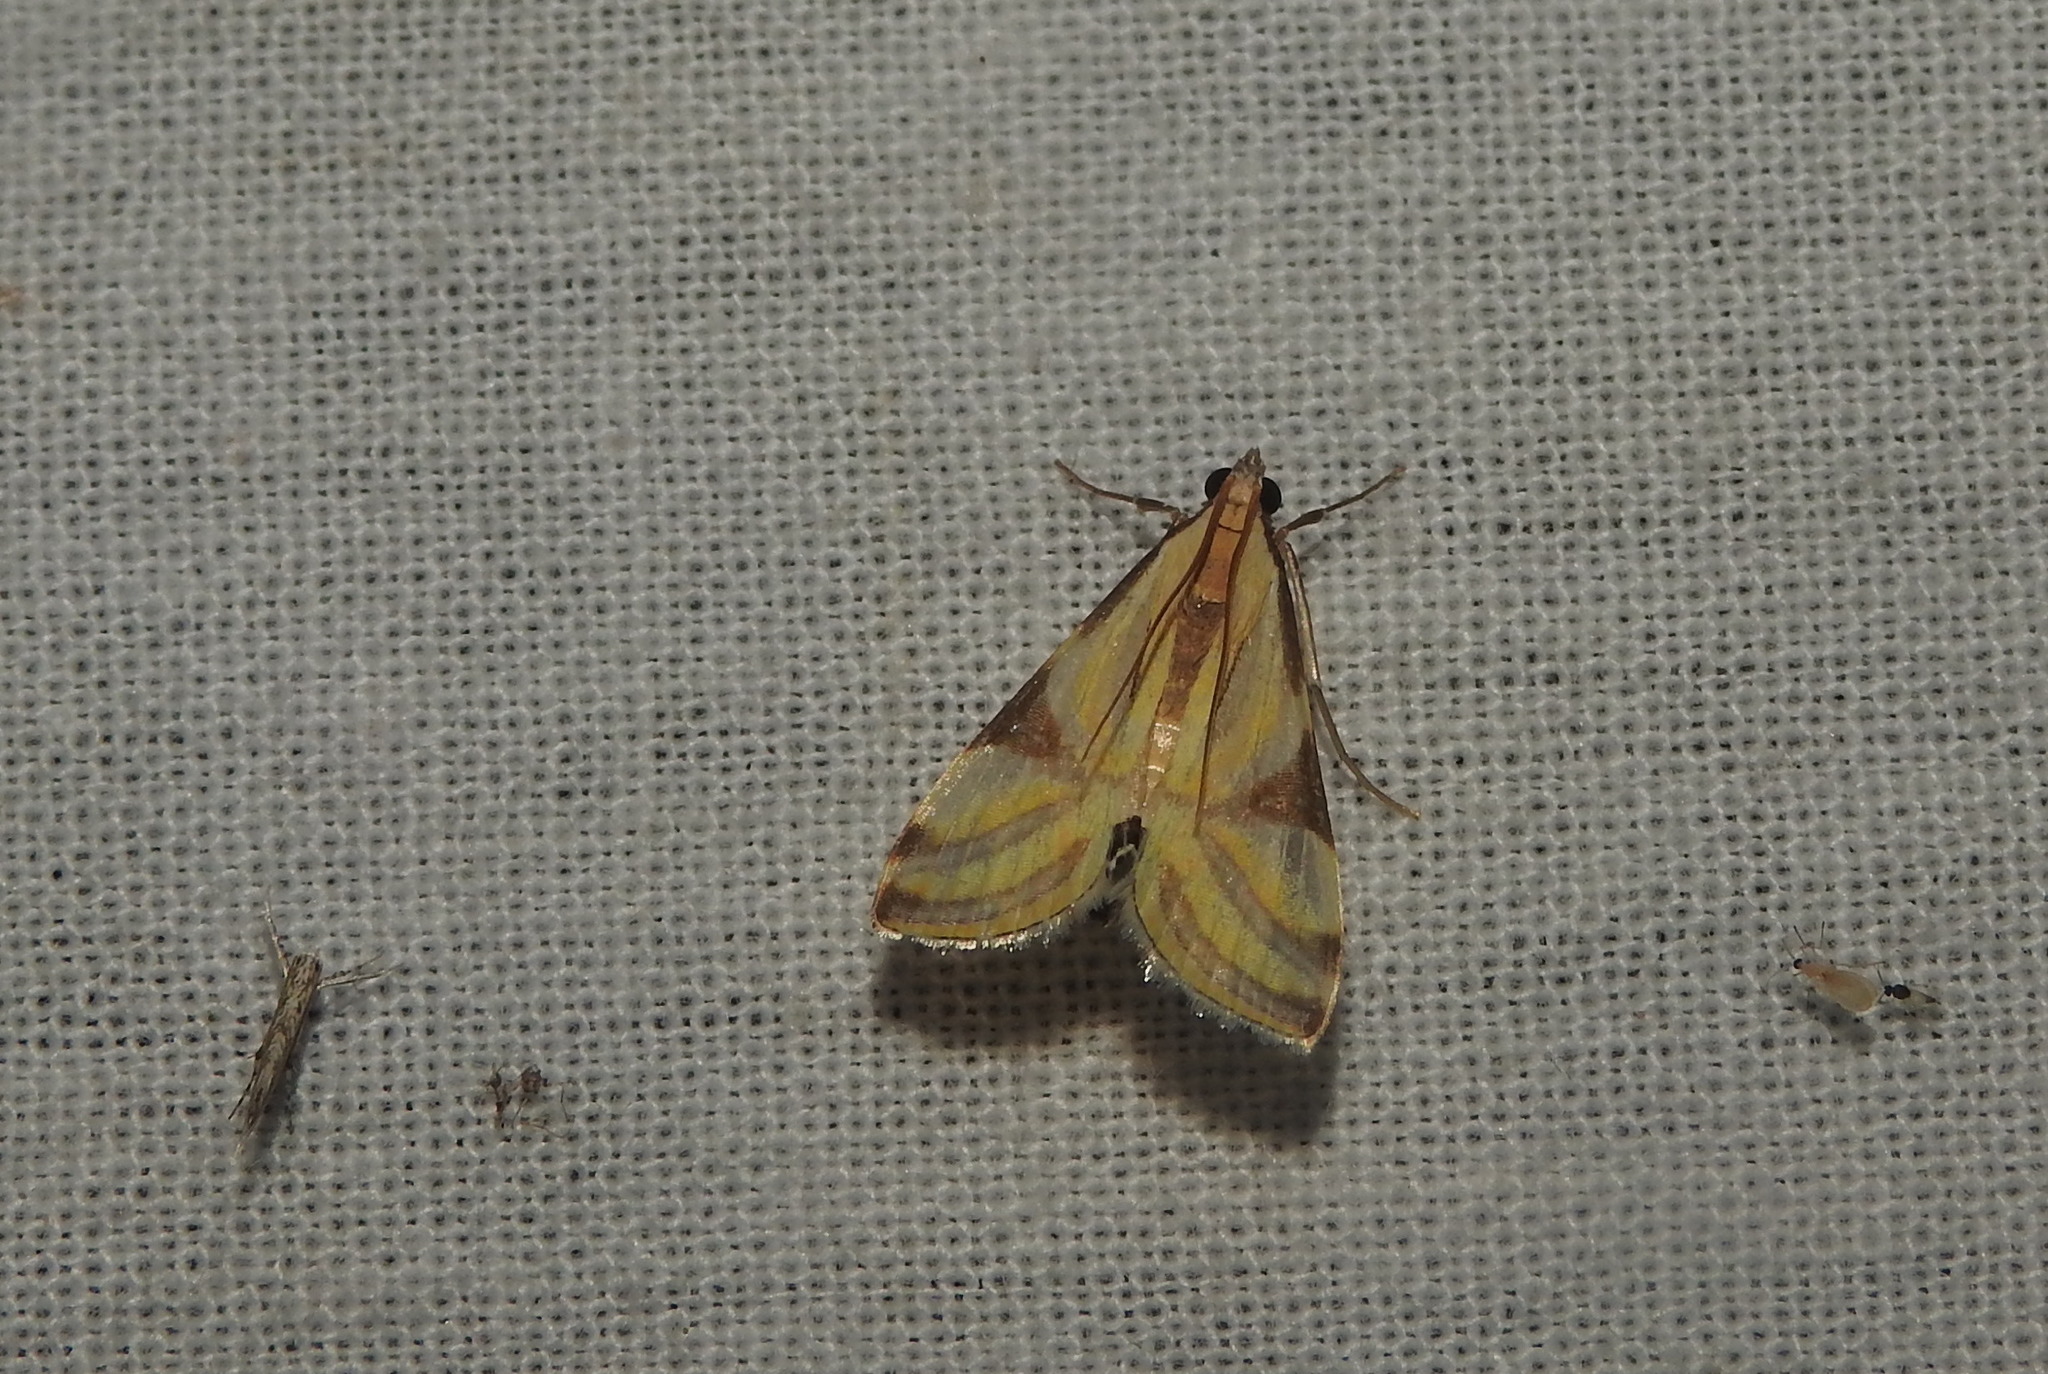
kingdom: Animalia
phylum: Arthropoda
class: Insecta
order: Lepidoptera
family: Crambidae
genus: Talanga
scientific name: Talanga sexpunctalis
